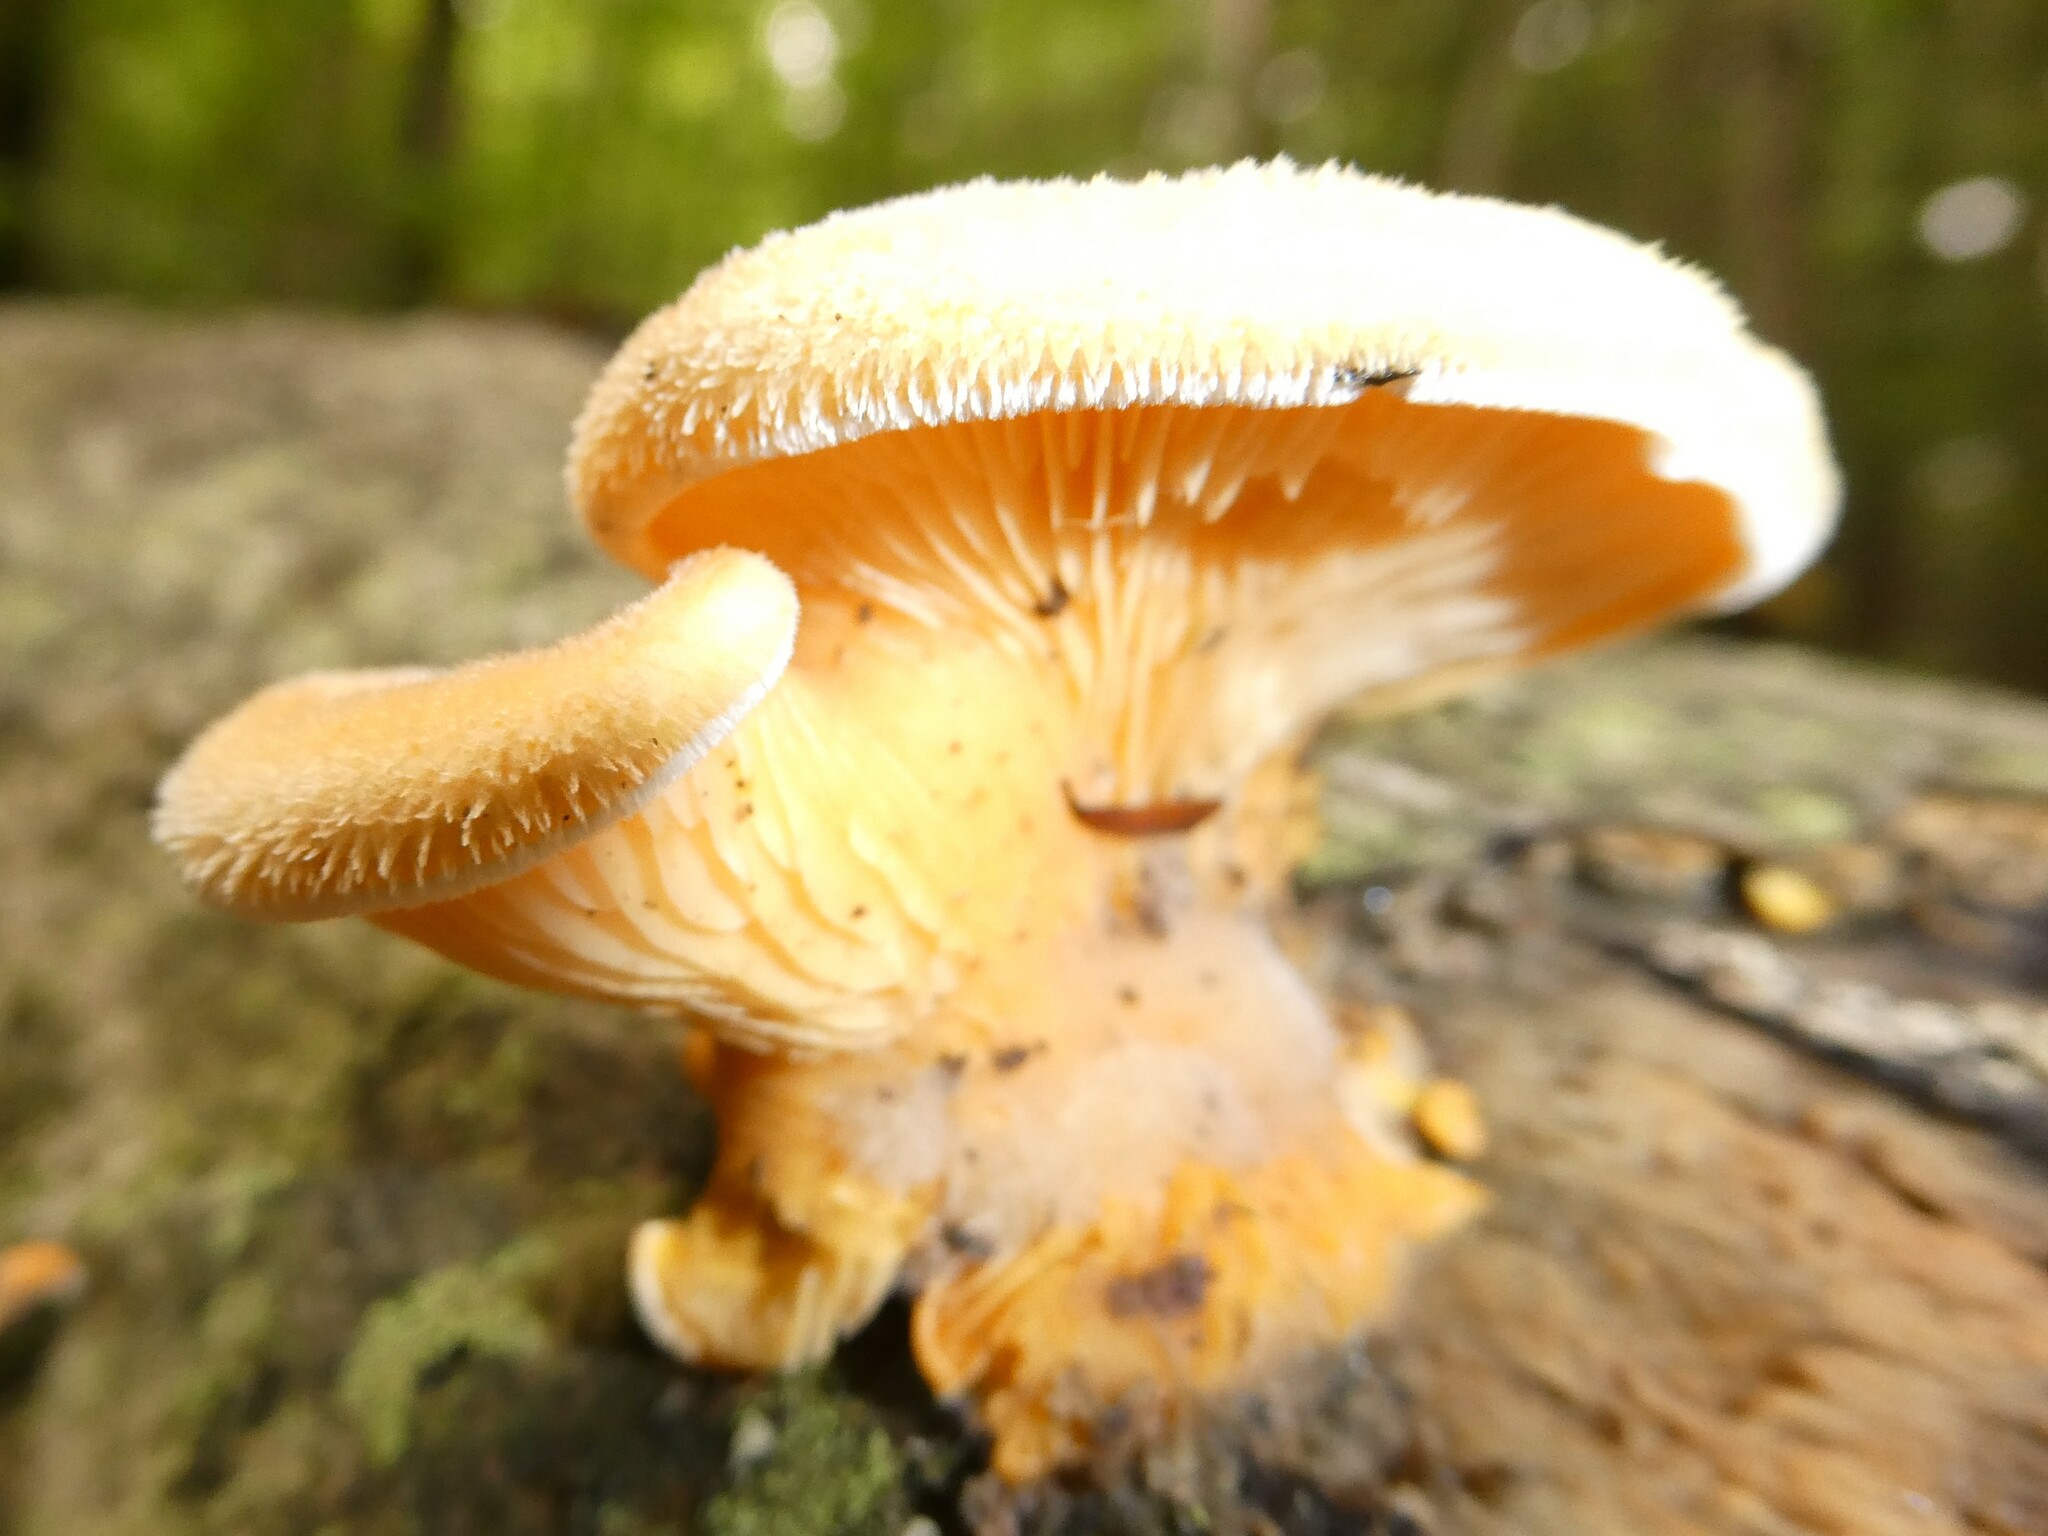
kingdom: Fungi
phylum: Basidiomycota
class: Agaricomycetes
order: Agaricales
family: Phyllotopsidaceae
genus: Phyllotopsis
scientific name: Phyllotopsis nidulans
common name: Orange mock oyster
